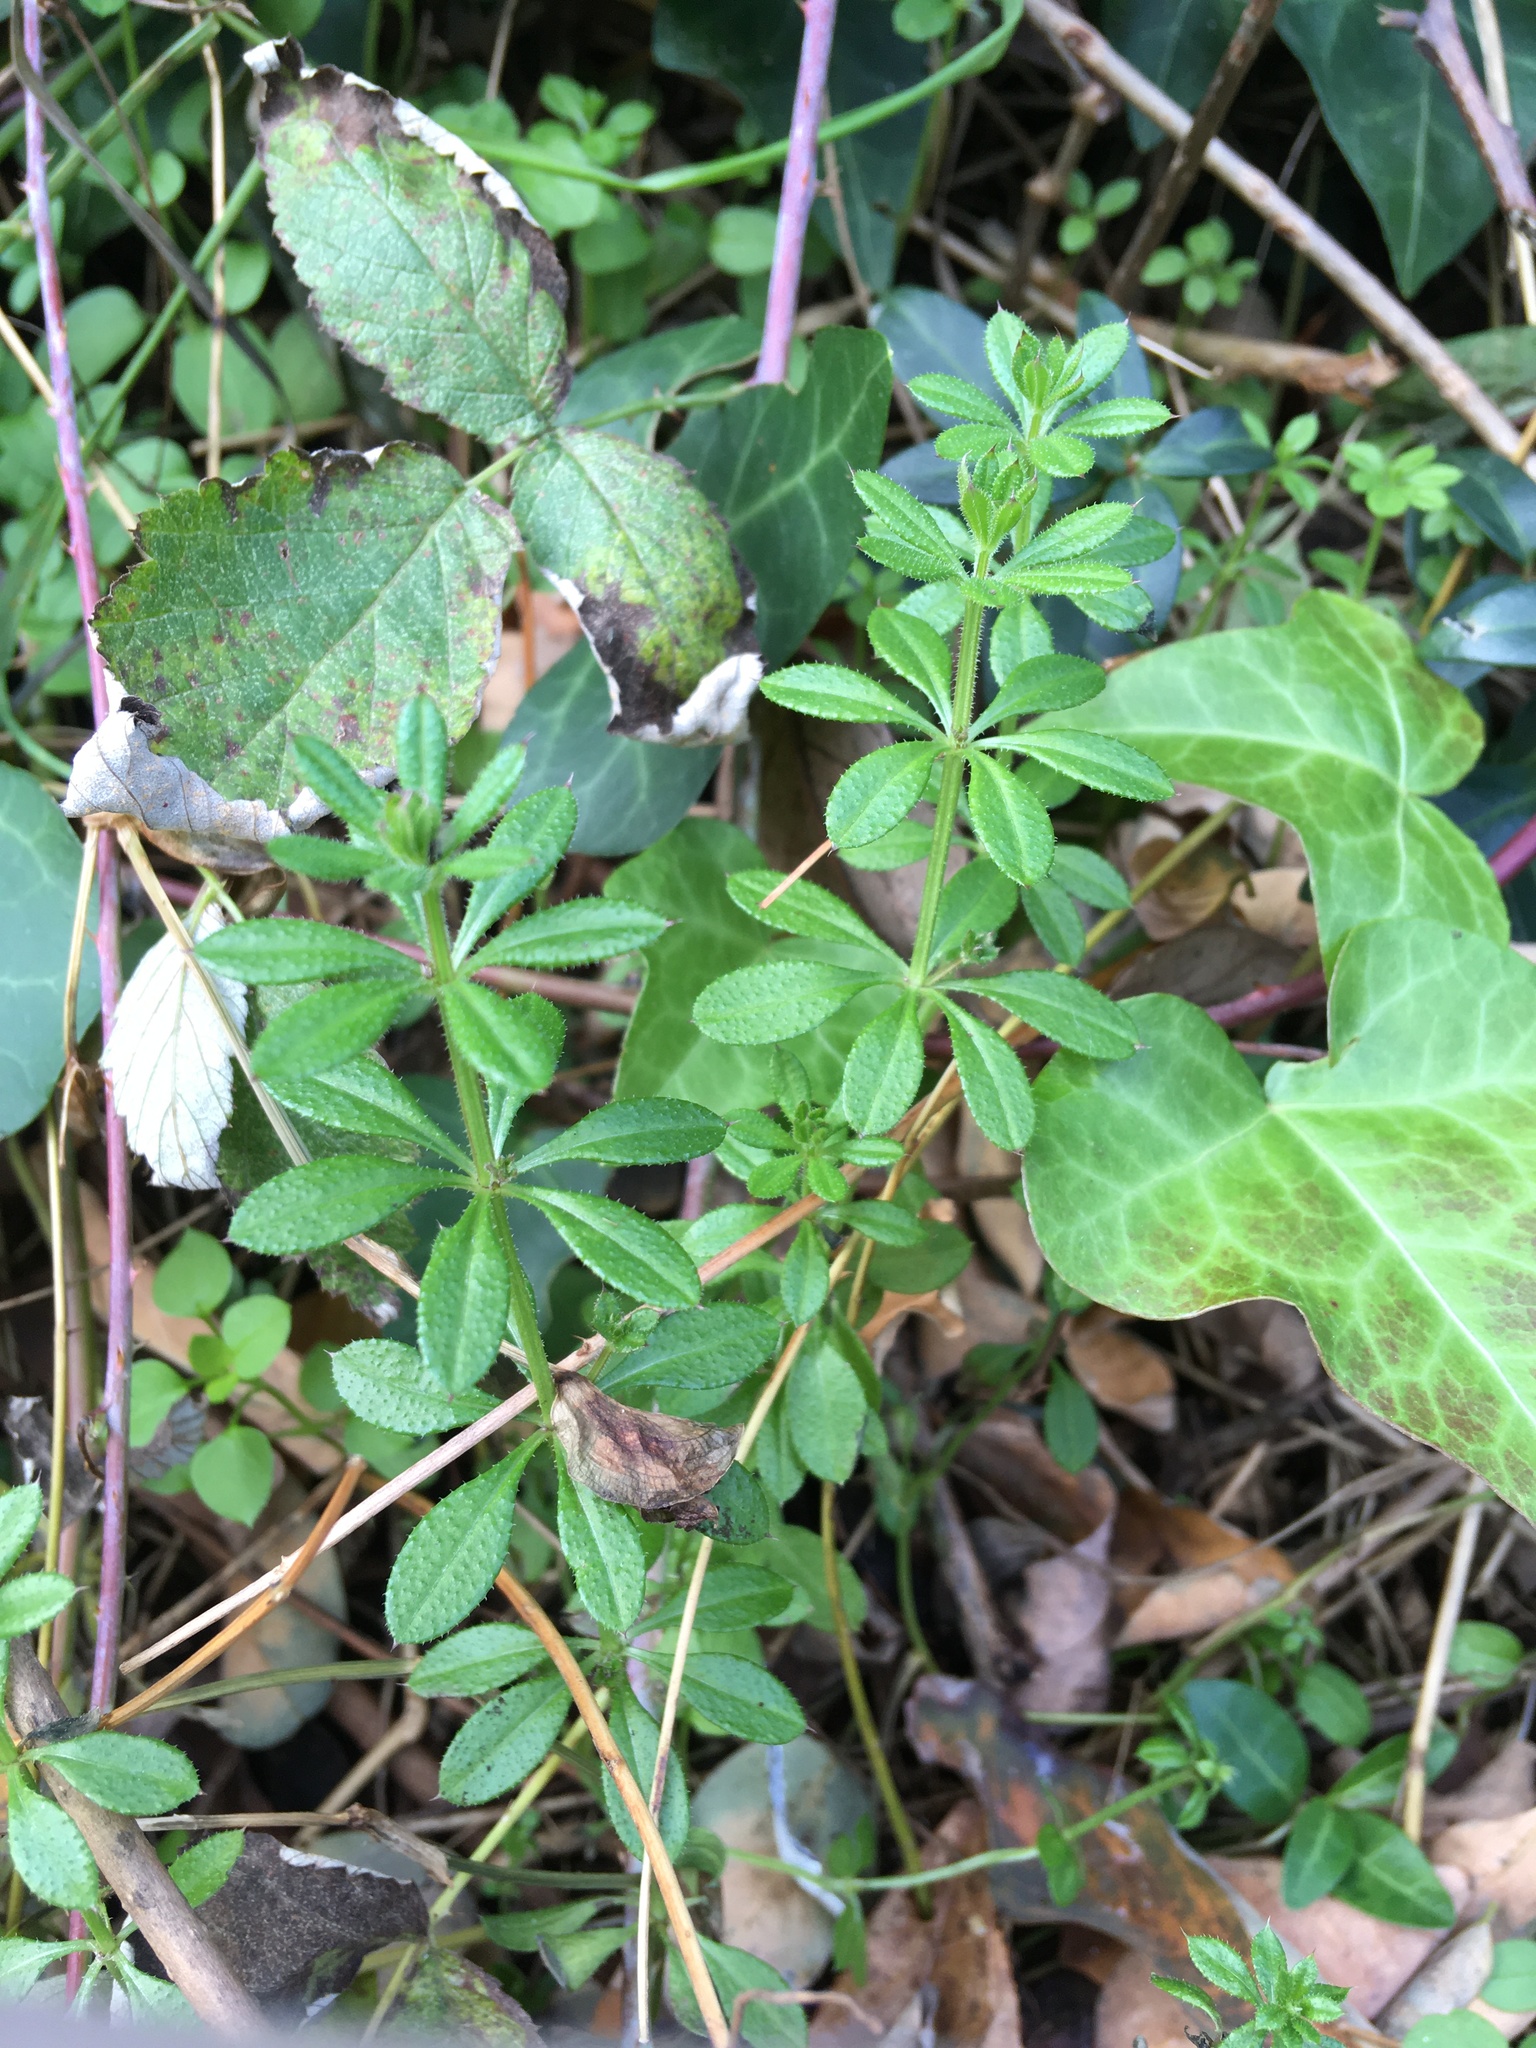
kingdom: Plantae
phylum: Tracheophyta
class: Magnoliopsida
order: Gentianales
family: Rubiaceae
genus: Galium
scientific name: Galium aparine
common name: Cleavers
